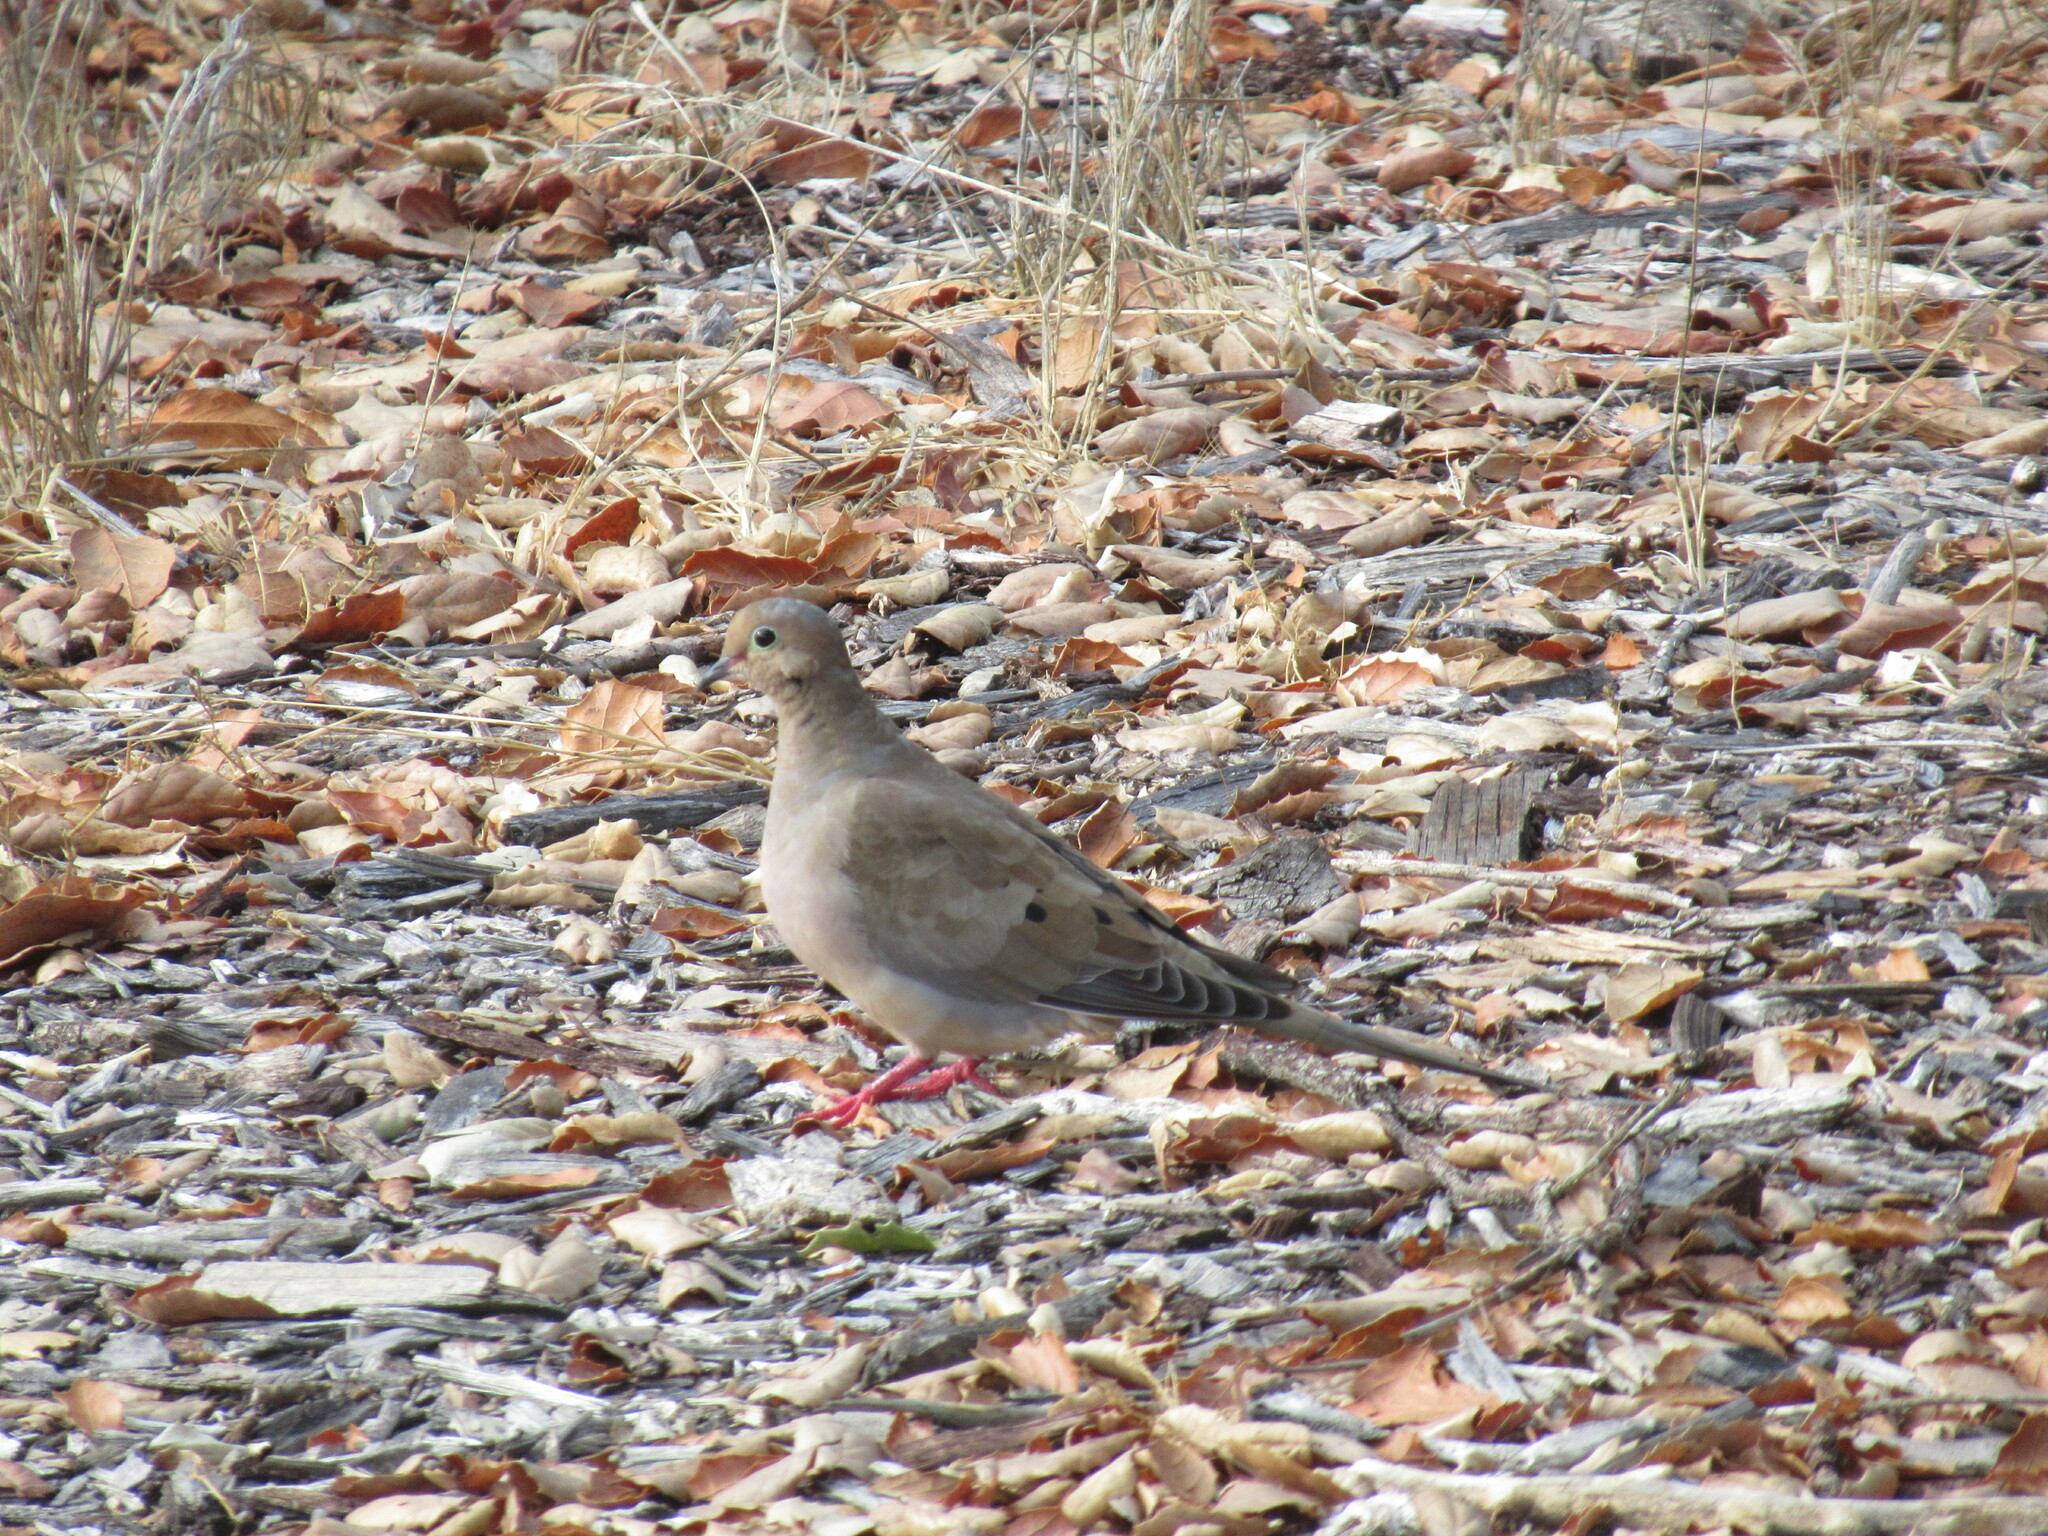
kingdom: Animalia
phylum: Chordata
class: Aves
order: Columbiformes
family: Columbidae
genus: Zenaida
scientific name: Zenaida macroura
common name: Mourning dove
